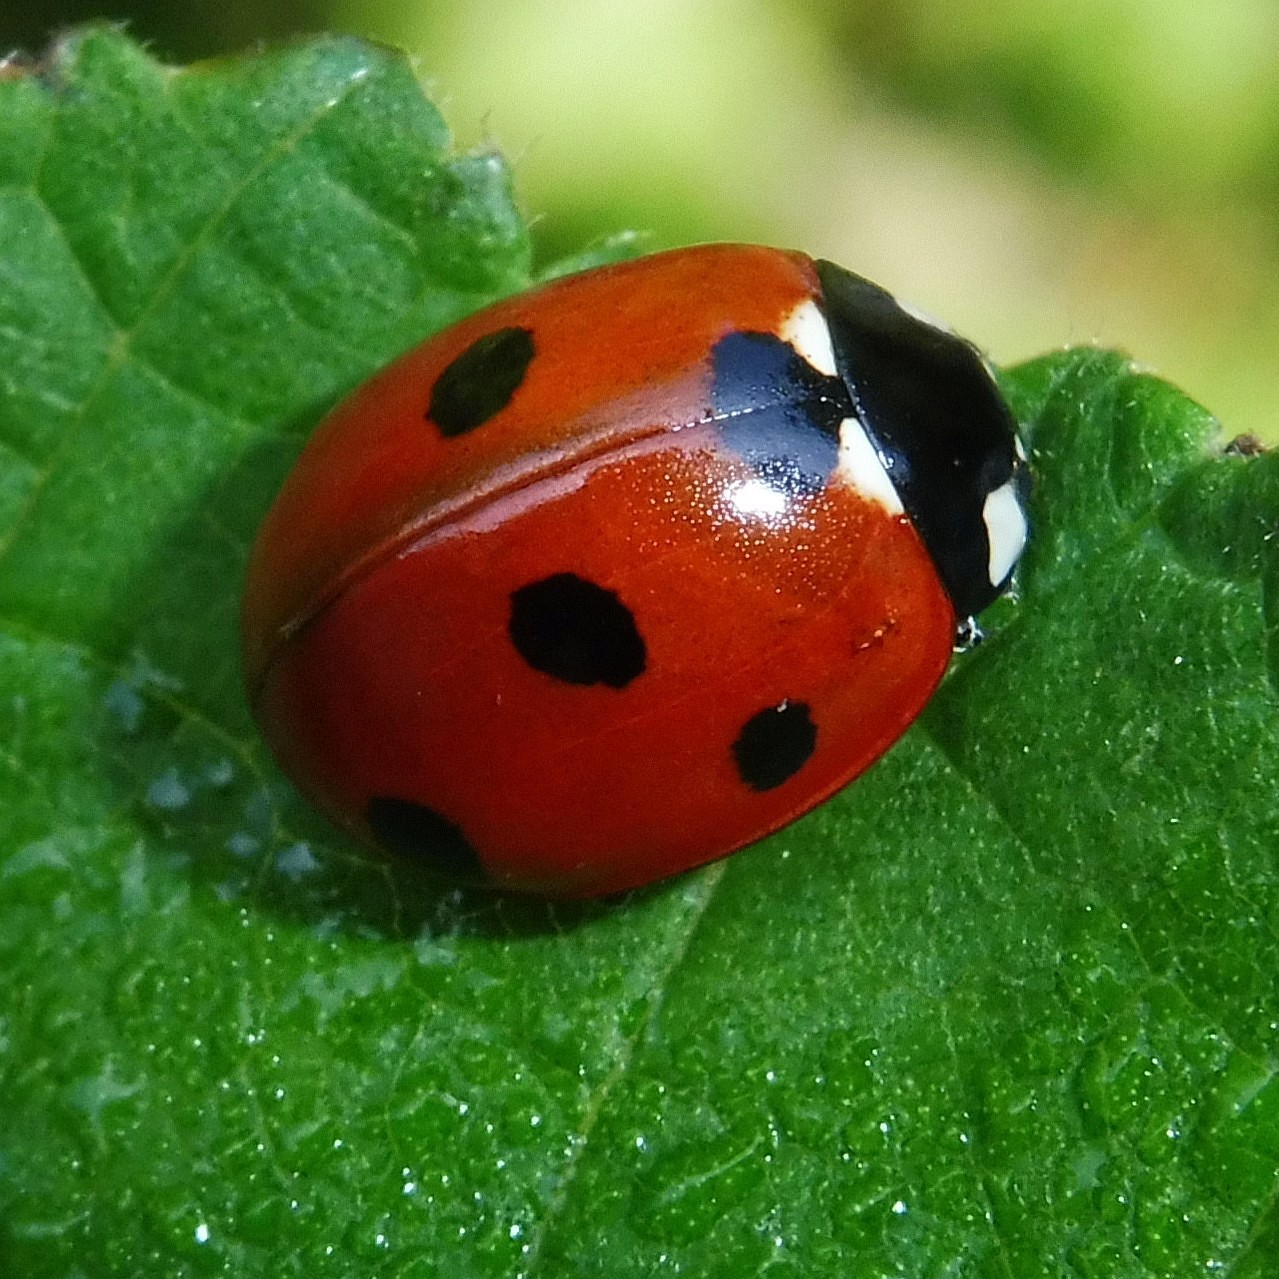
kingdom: Animalia
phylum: Arthropoda
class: Insecta
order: Coleoptera
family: Coccinellidae
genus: Coccinella
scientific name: Coccinella septempunctata
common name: Sevenspotted lady beetle
